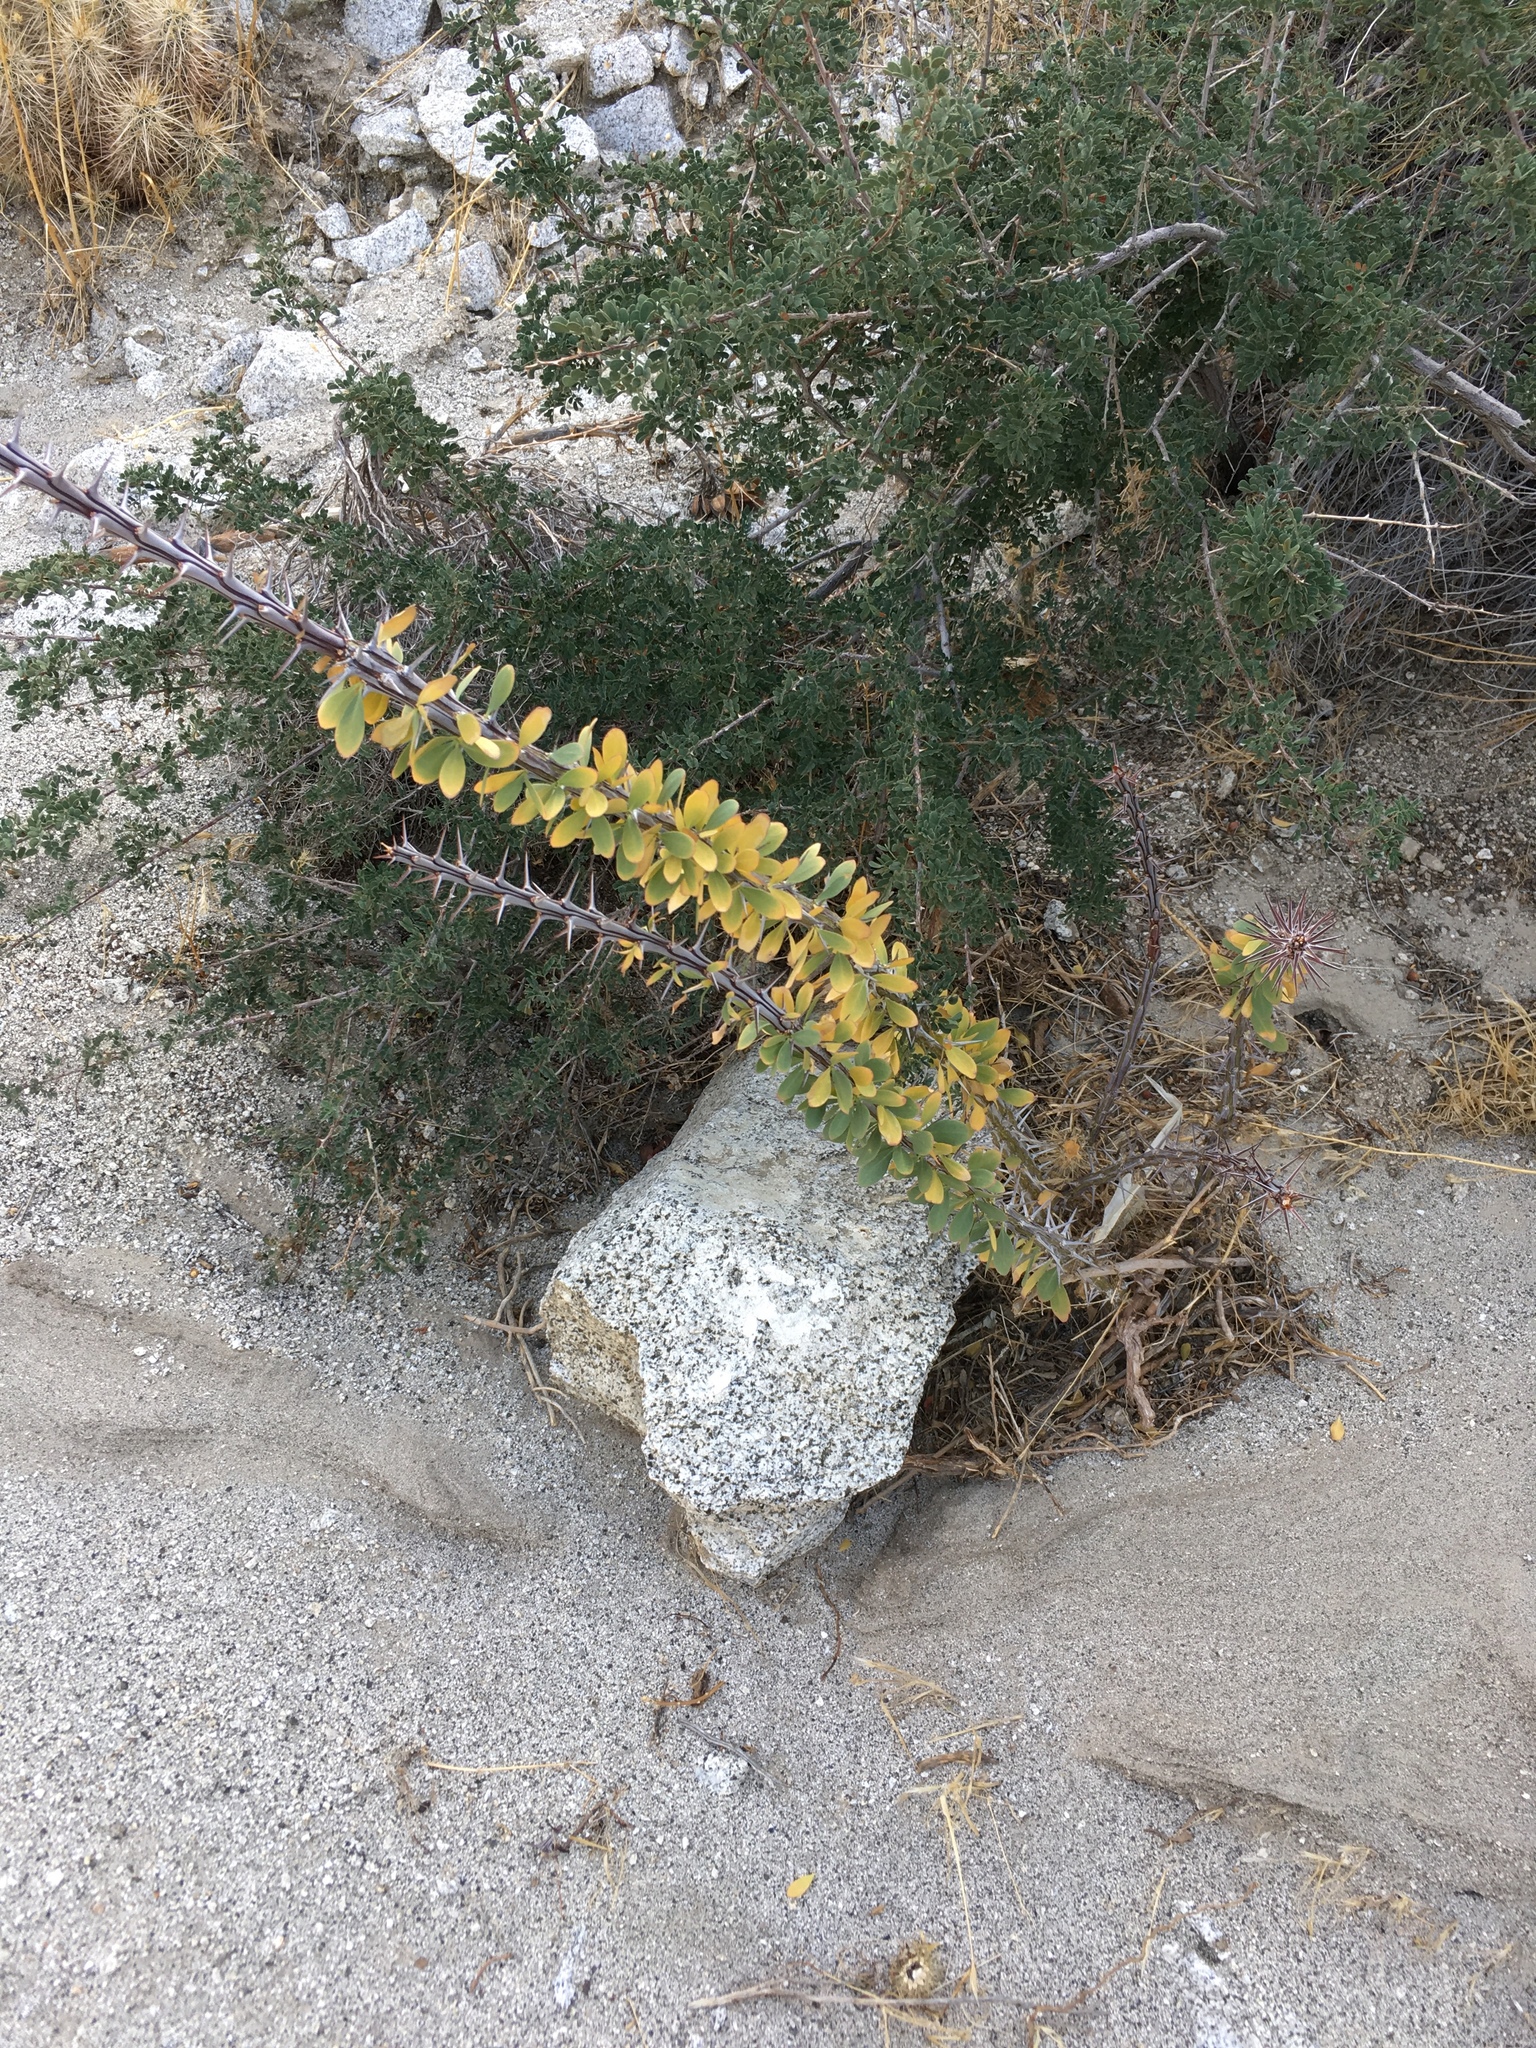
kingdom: Plantae
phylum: Tracheophyta
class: Magnoliopsida
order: Ericales
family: Fouquieriaceae
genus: Fouquieria
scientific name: Fouquieria splendens
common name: Vine-cactus
